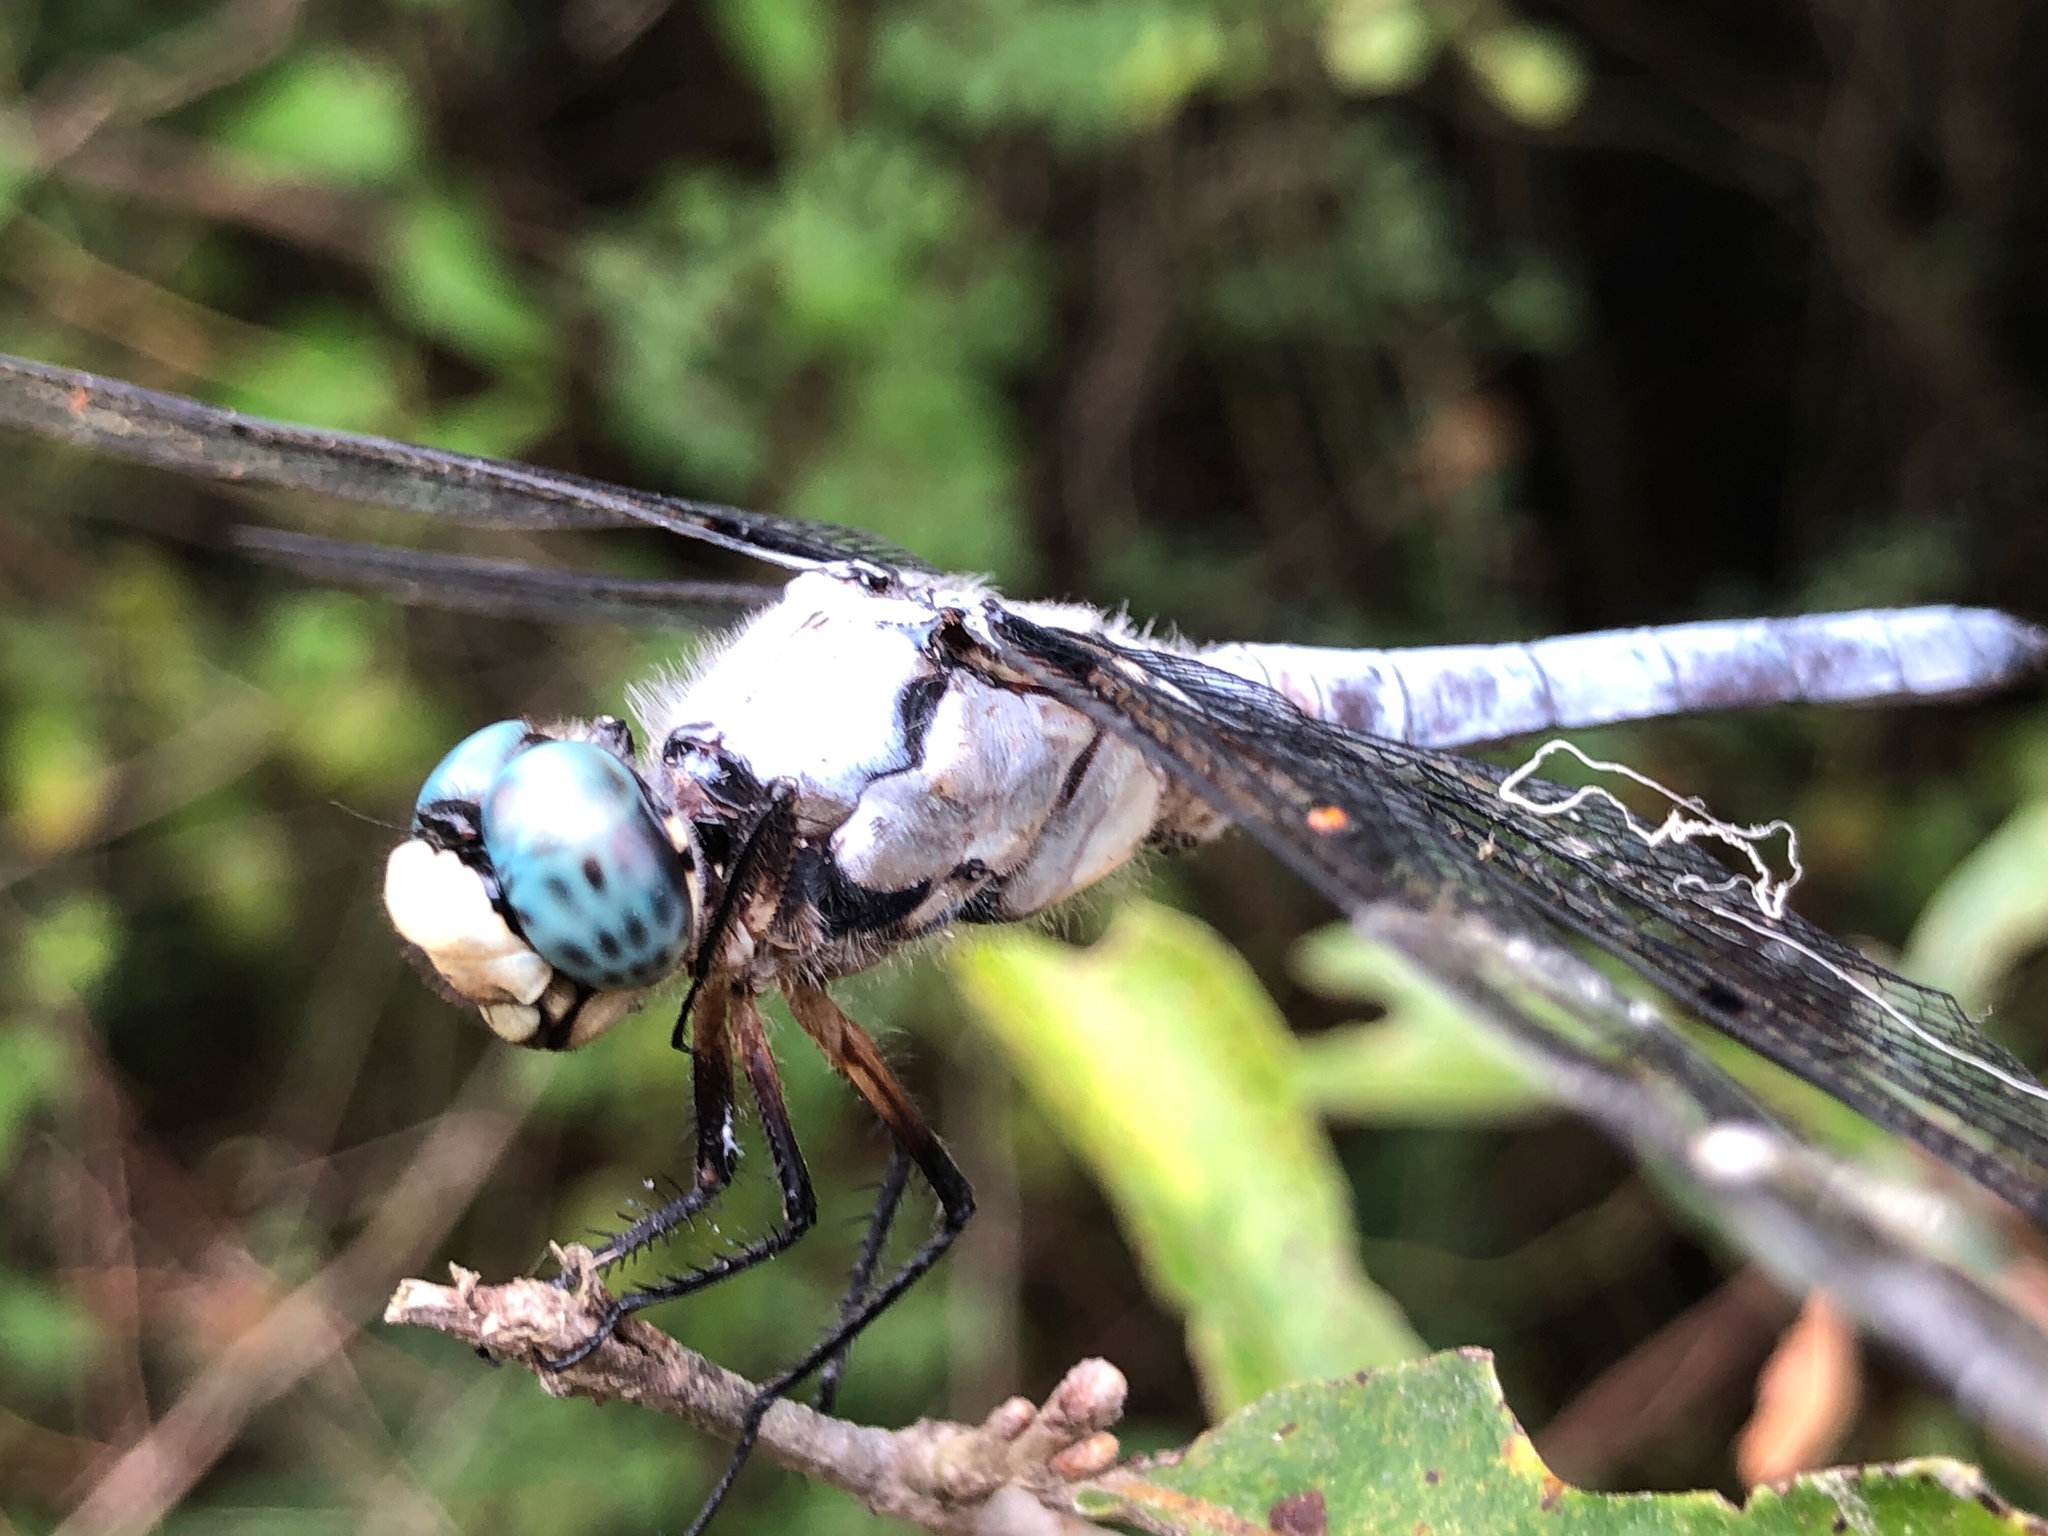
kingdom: Animalia
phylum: Arthropoda
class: Insecta
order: Odonata
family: Libellulidae
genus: Libellula
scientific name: Libellula vibrans
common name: Great blue skimmer
